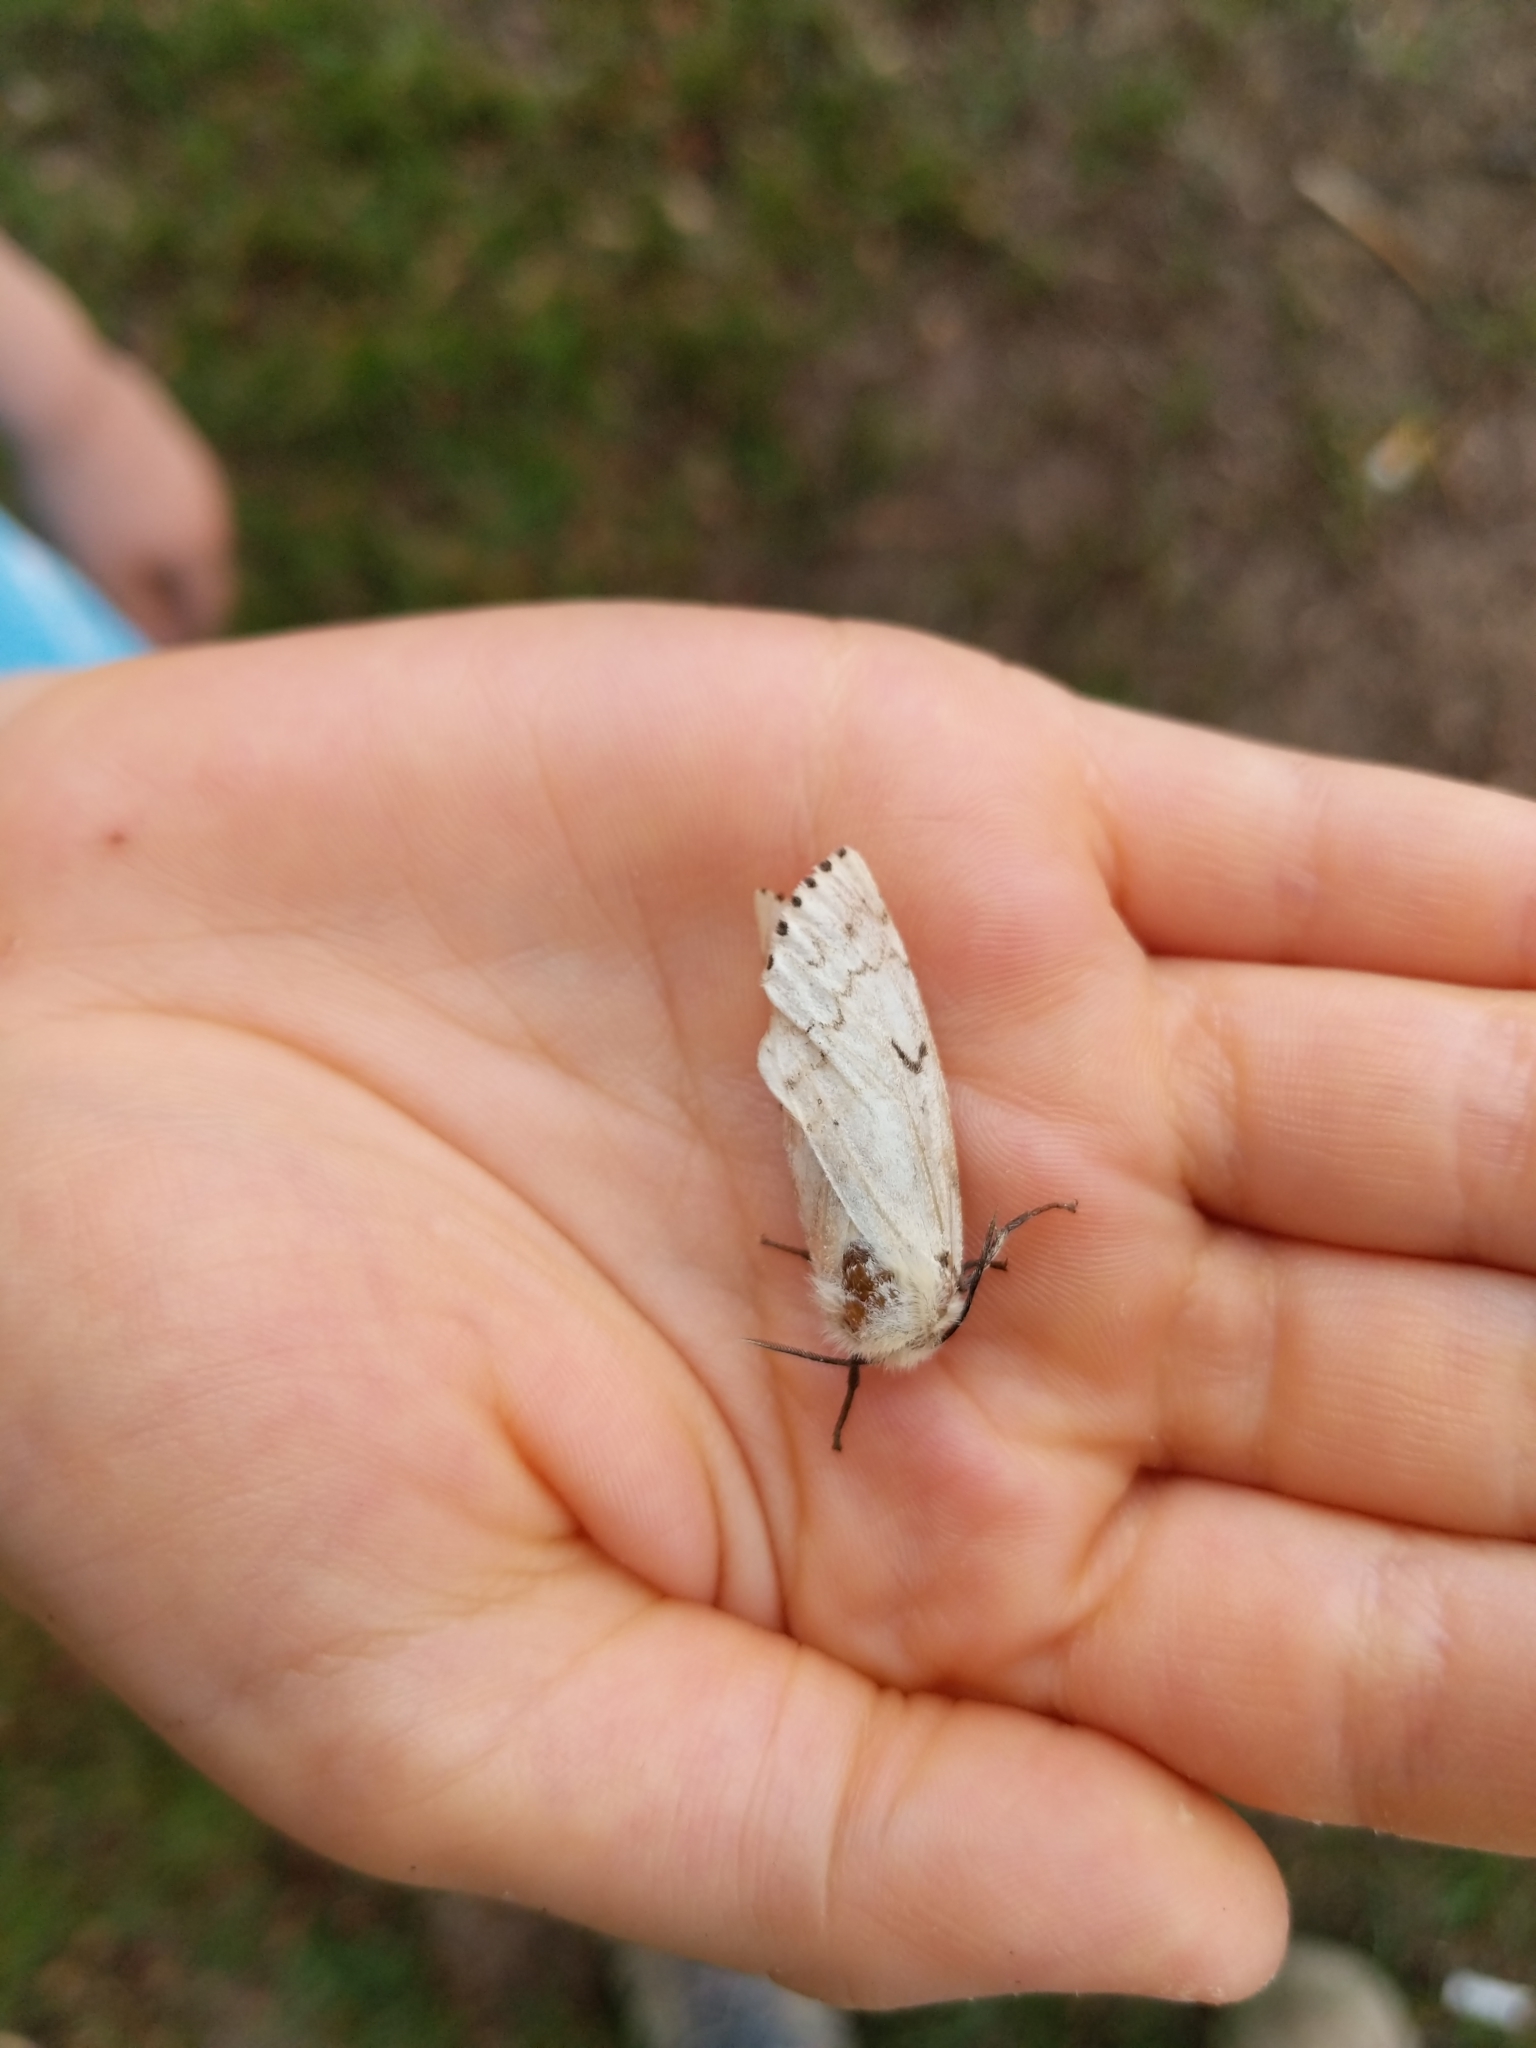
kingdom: Animalia
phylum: Arthropoda
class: Insecta
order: Lepidoptera
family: Erebidae
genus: Lymantria
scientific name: Lymantria dispar
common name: Gypsy moth
